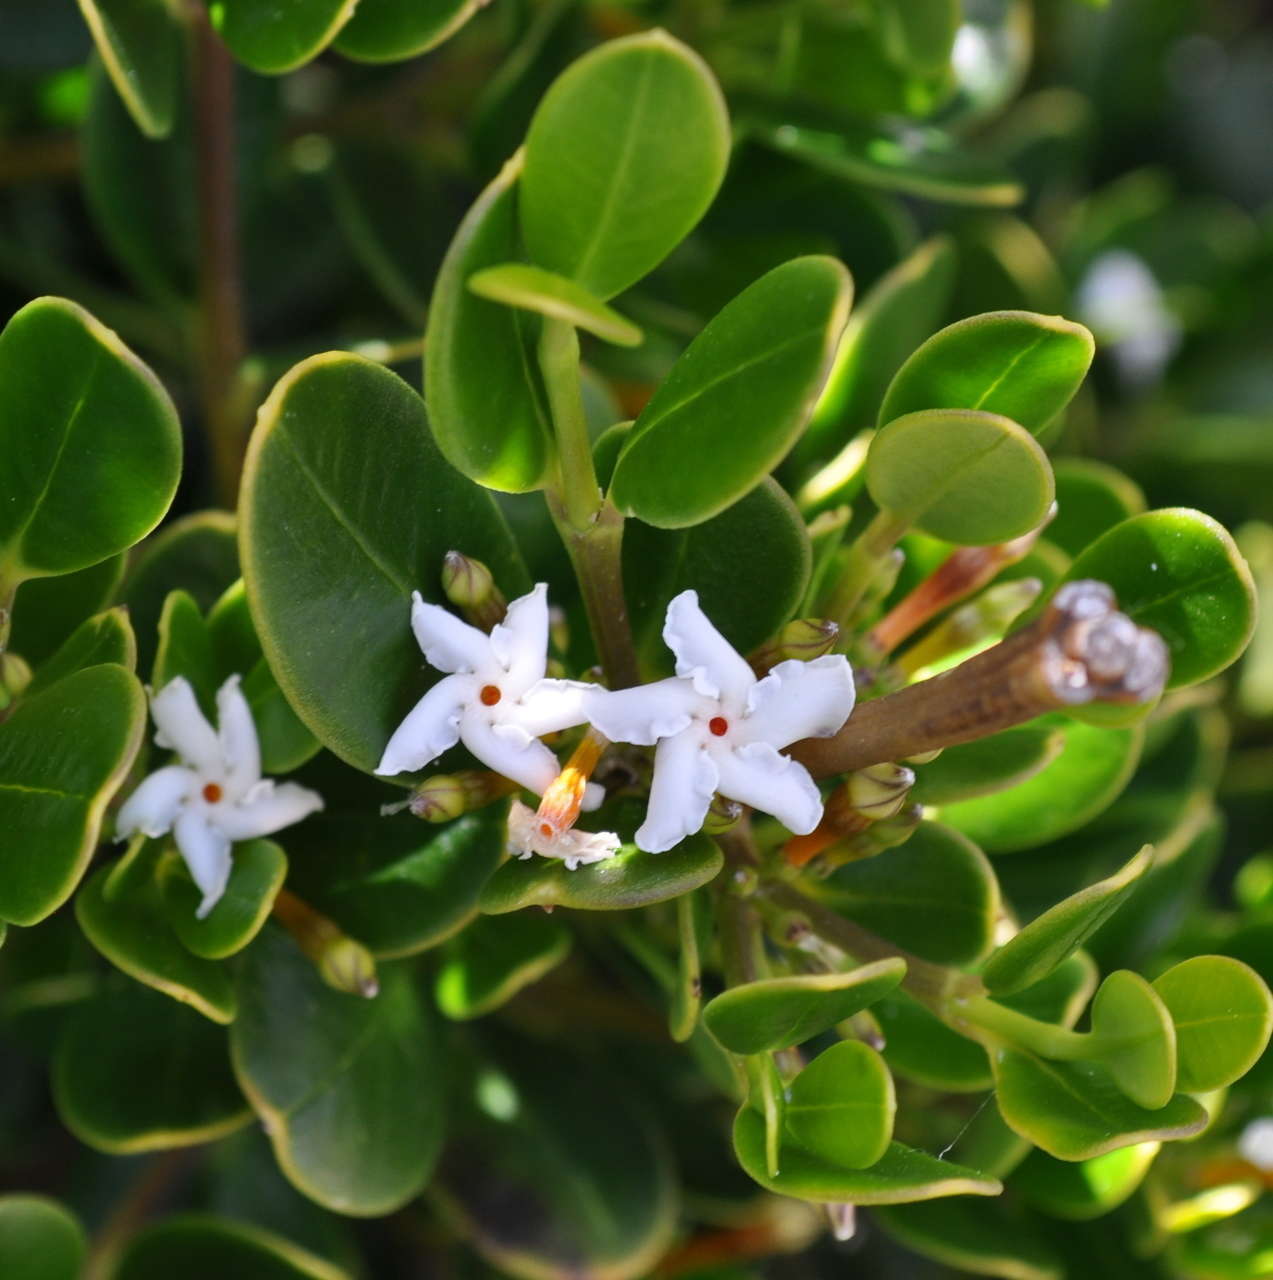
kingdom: Plantae
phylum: Tracheophyta
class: Magnoliopsida
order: Gentianales
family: Apocynaceae
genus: Alyxia
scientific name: Alyxia buxifolia
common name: Dysentery-bush
